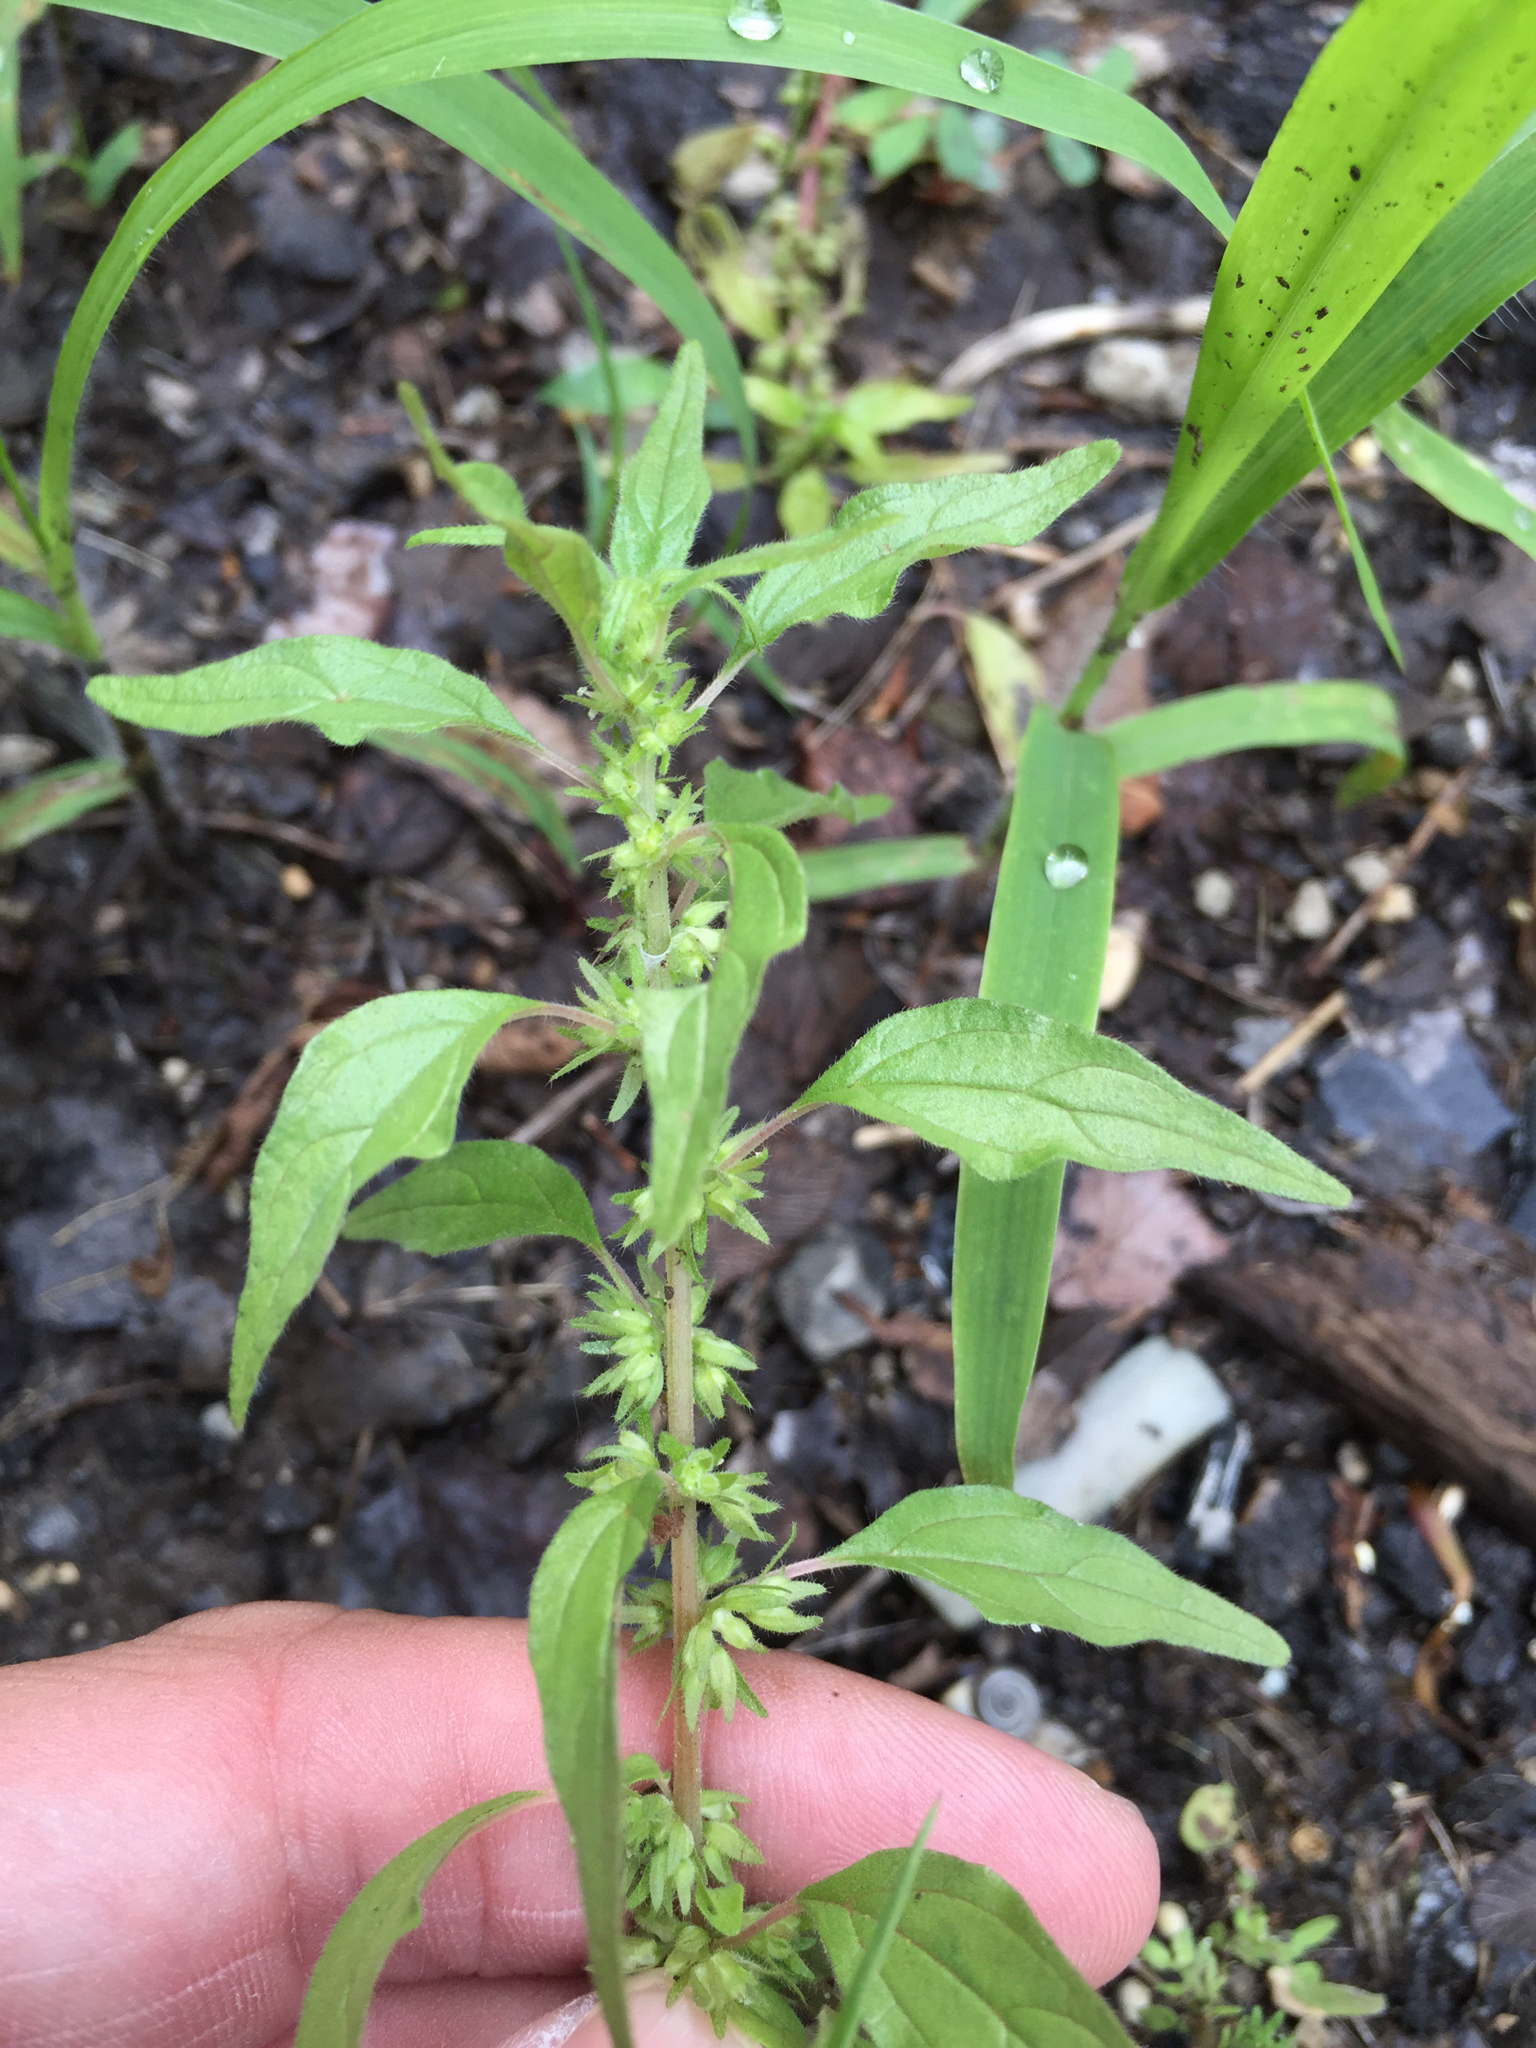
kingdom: Plantae
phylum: Tracheophyta
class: Magnoliopsida
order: Rosales
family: Urticaceae
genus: Parietaria
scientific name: Parietaria pensylvanica
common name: Pennsylvania pellitory
